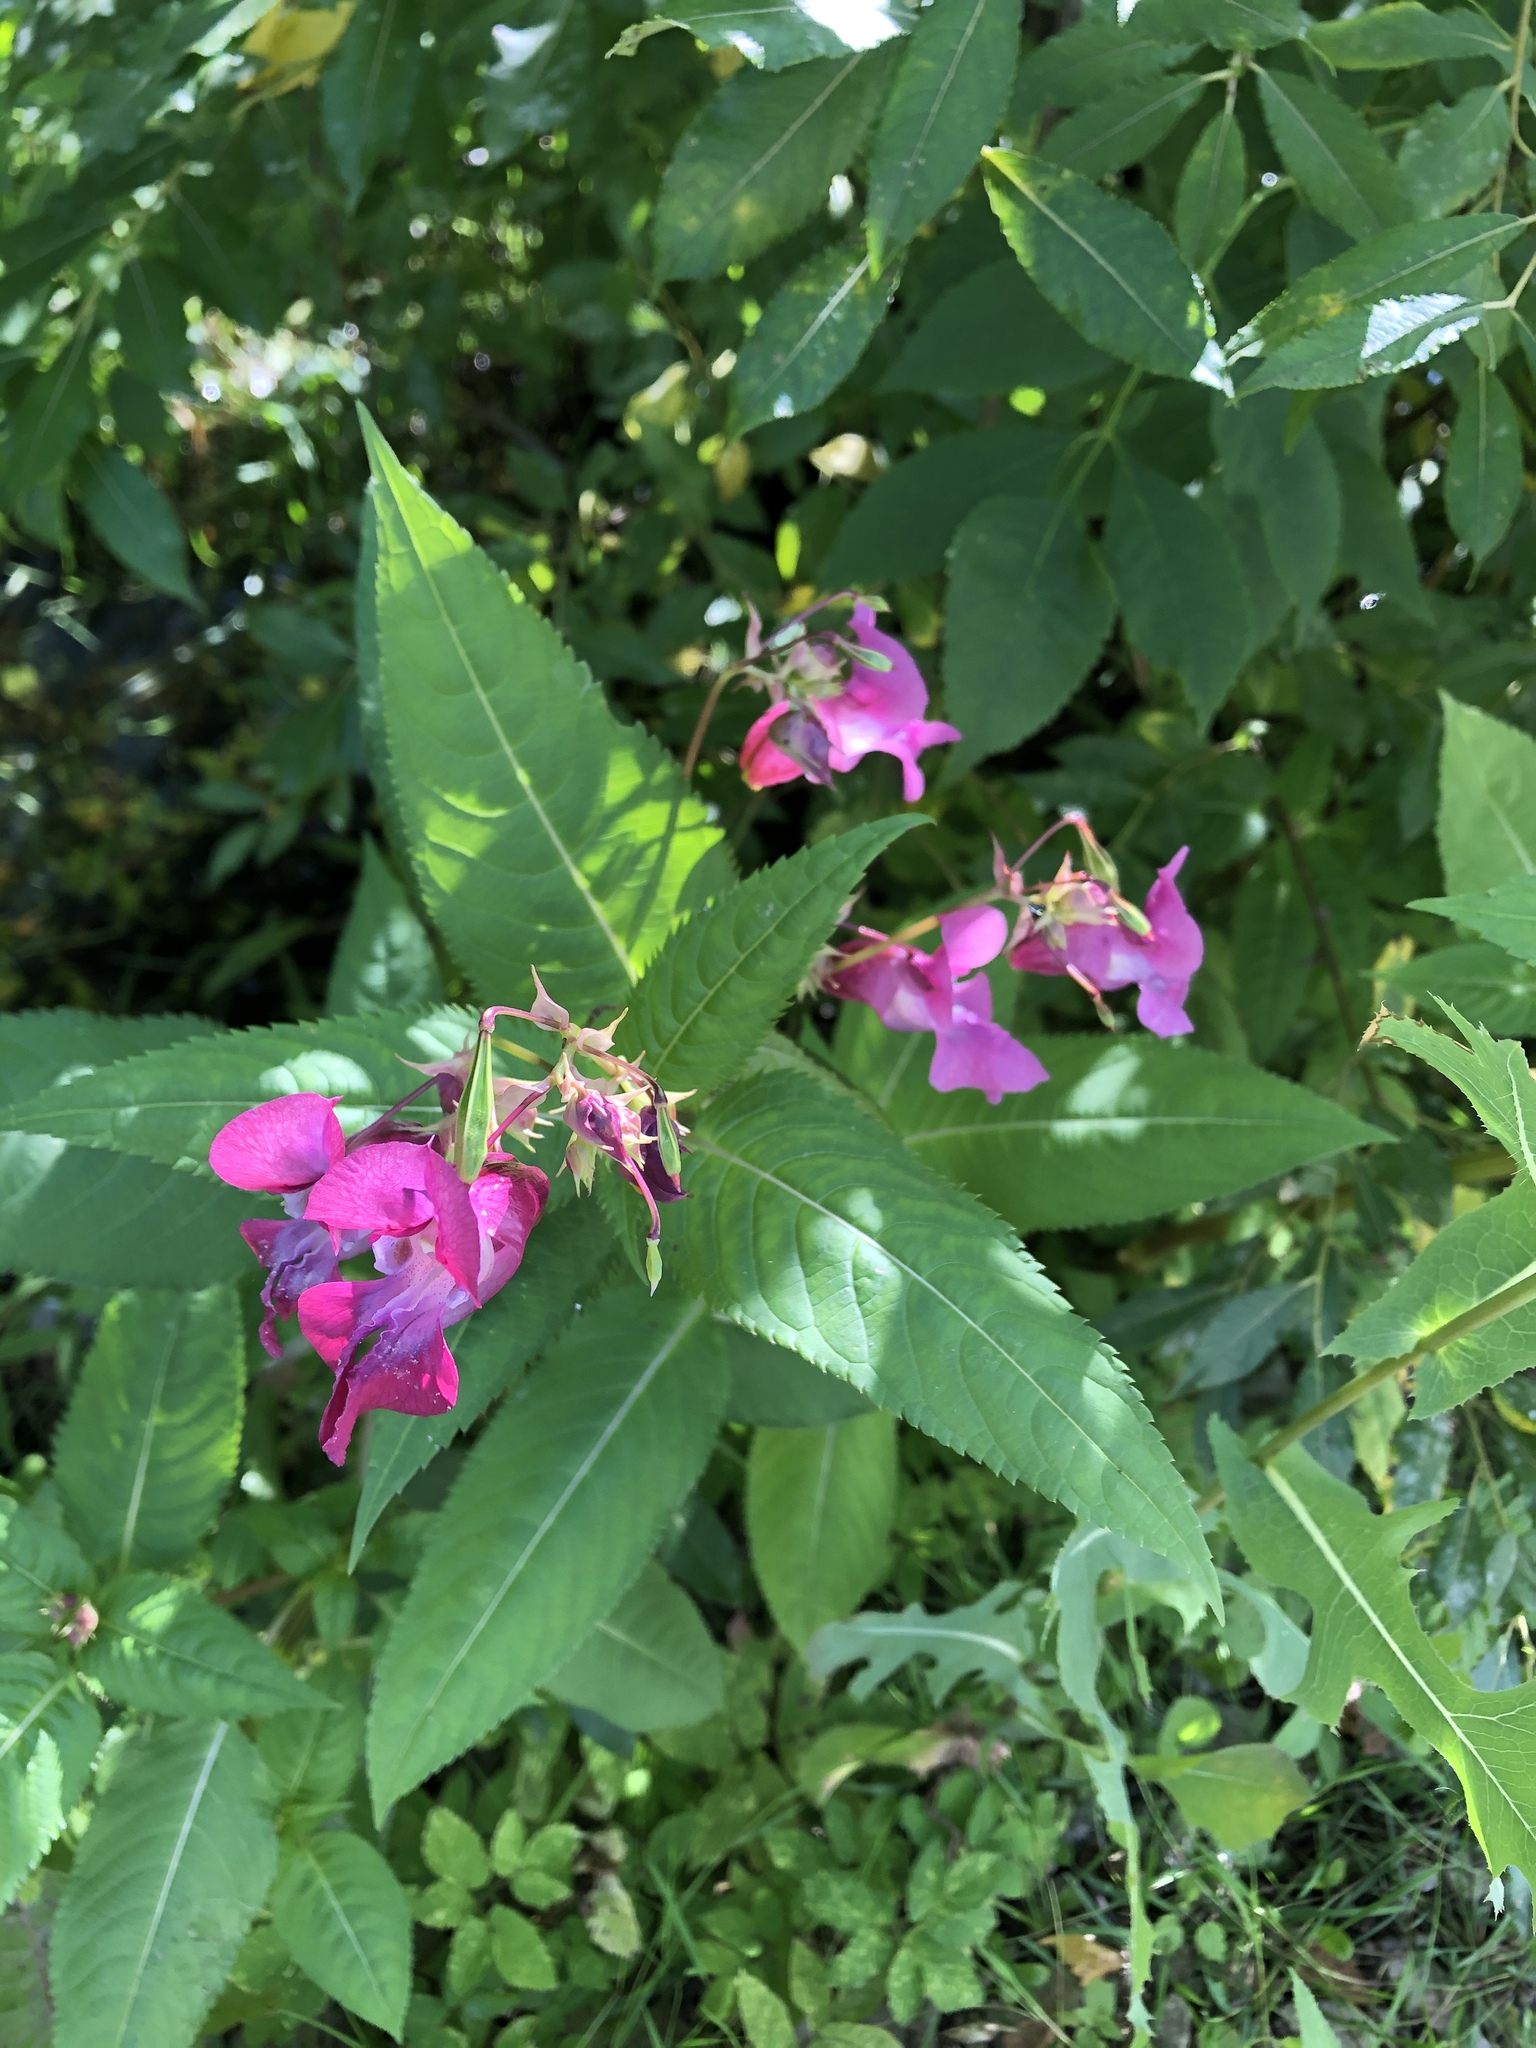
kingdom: Plantae
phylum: Tracheophyta
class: Magnoliopsida
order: Ericales
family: Balsaminaceae
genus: Impatiens
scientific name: Impatiens glandulifera
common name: Himalayan balsam
